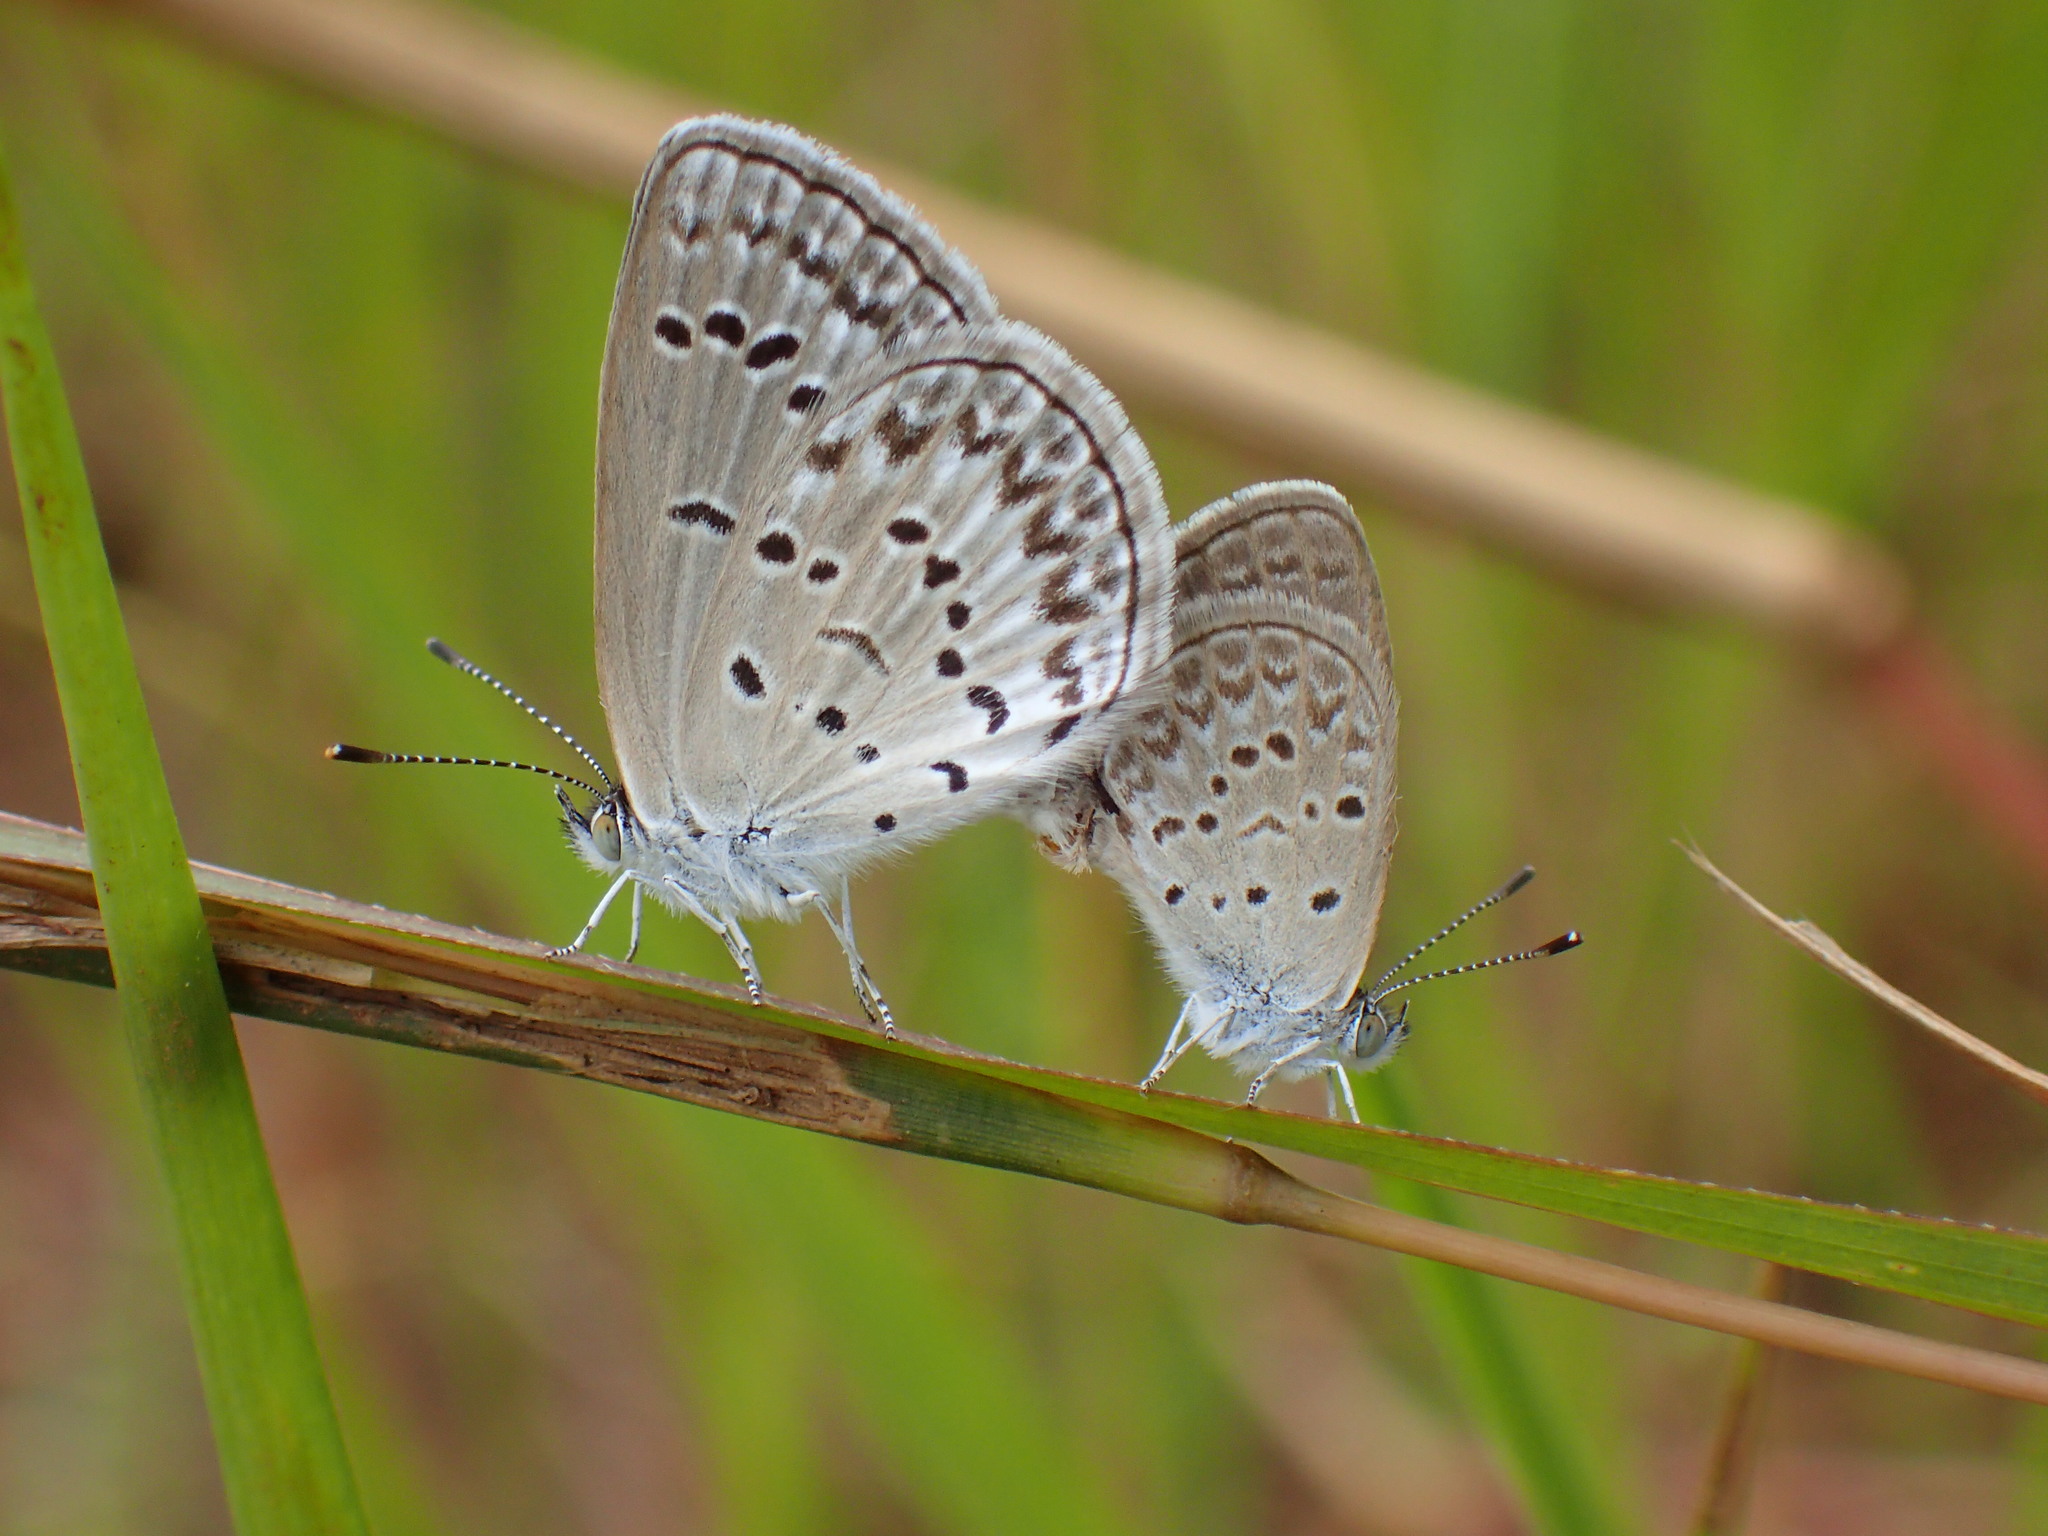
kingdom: Animalia
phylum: Arthropoda
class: Insecta
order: Lepidoptera
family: Lycaenidae
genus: Zizina
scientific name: Zizina antanossa
